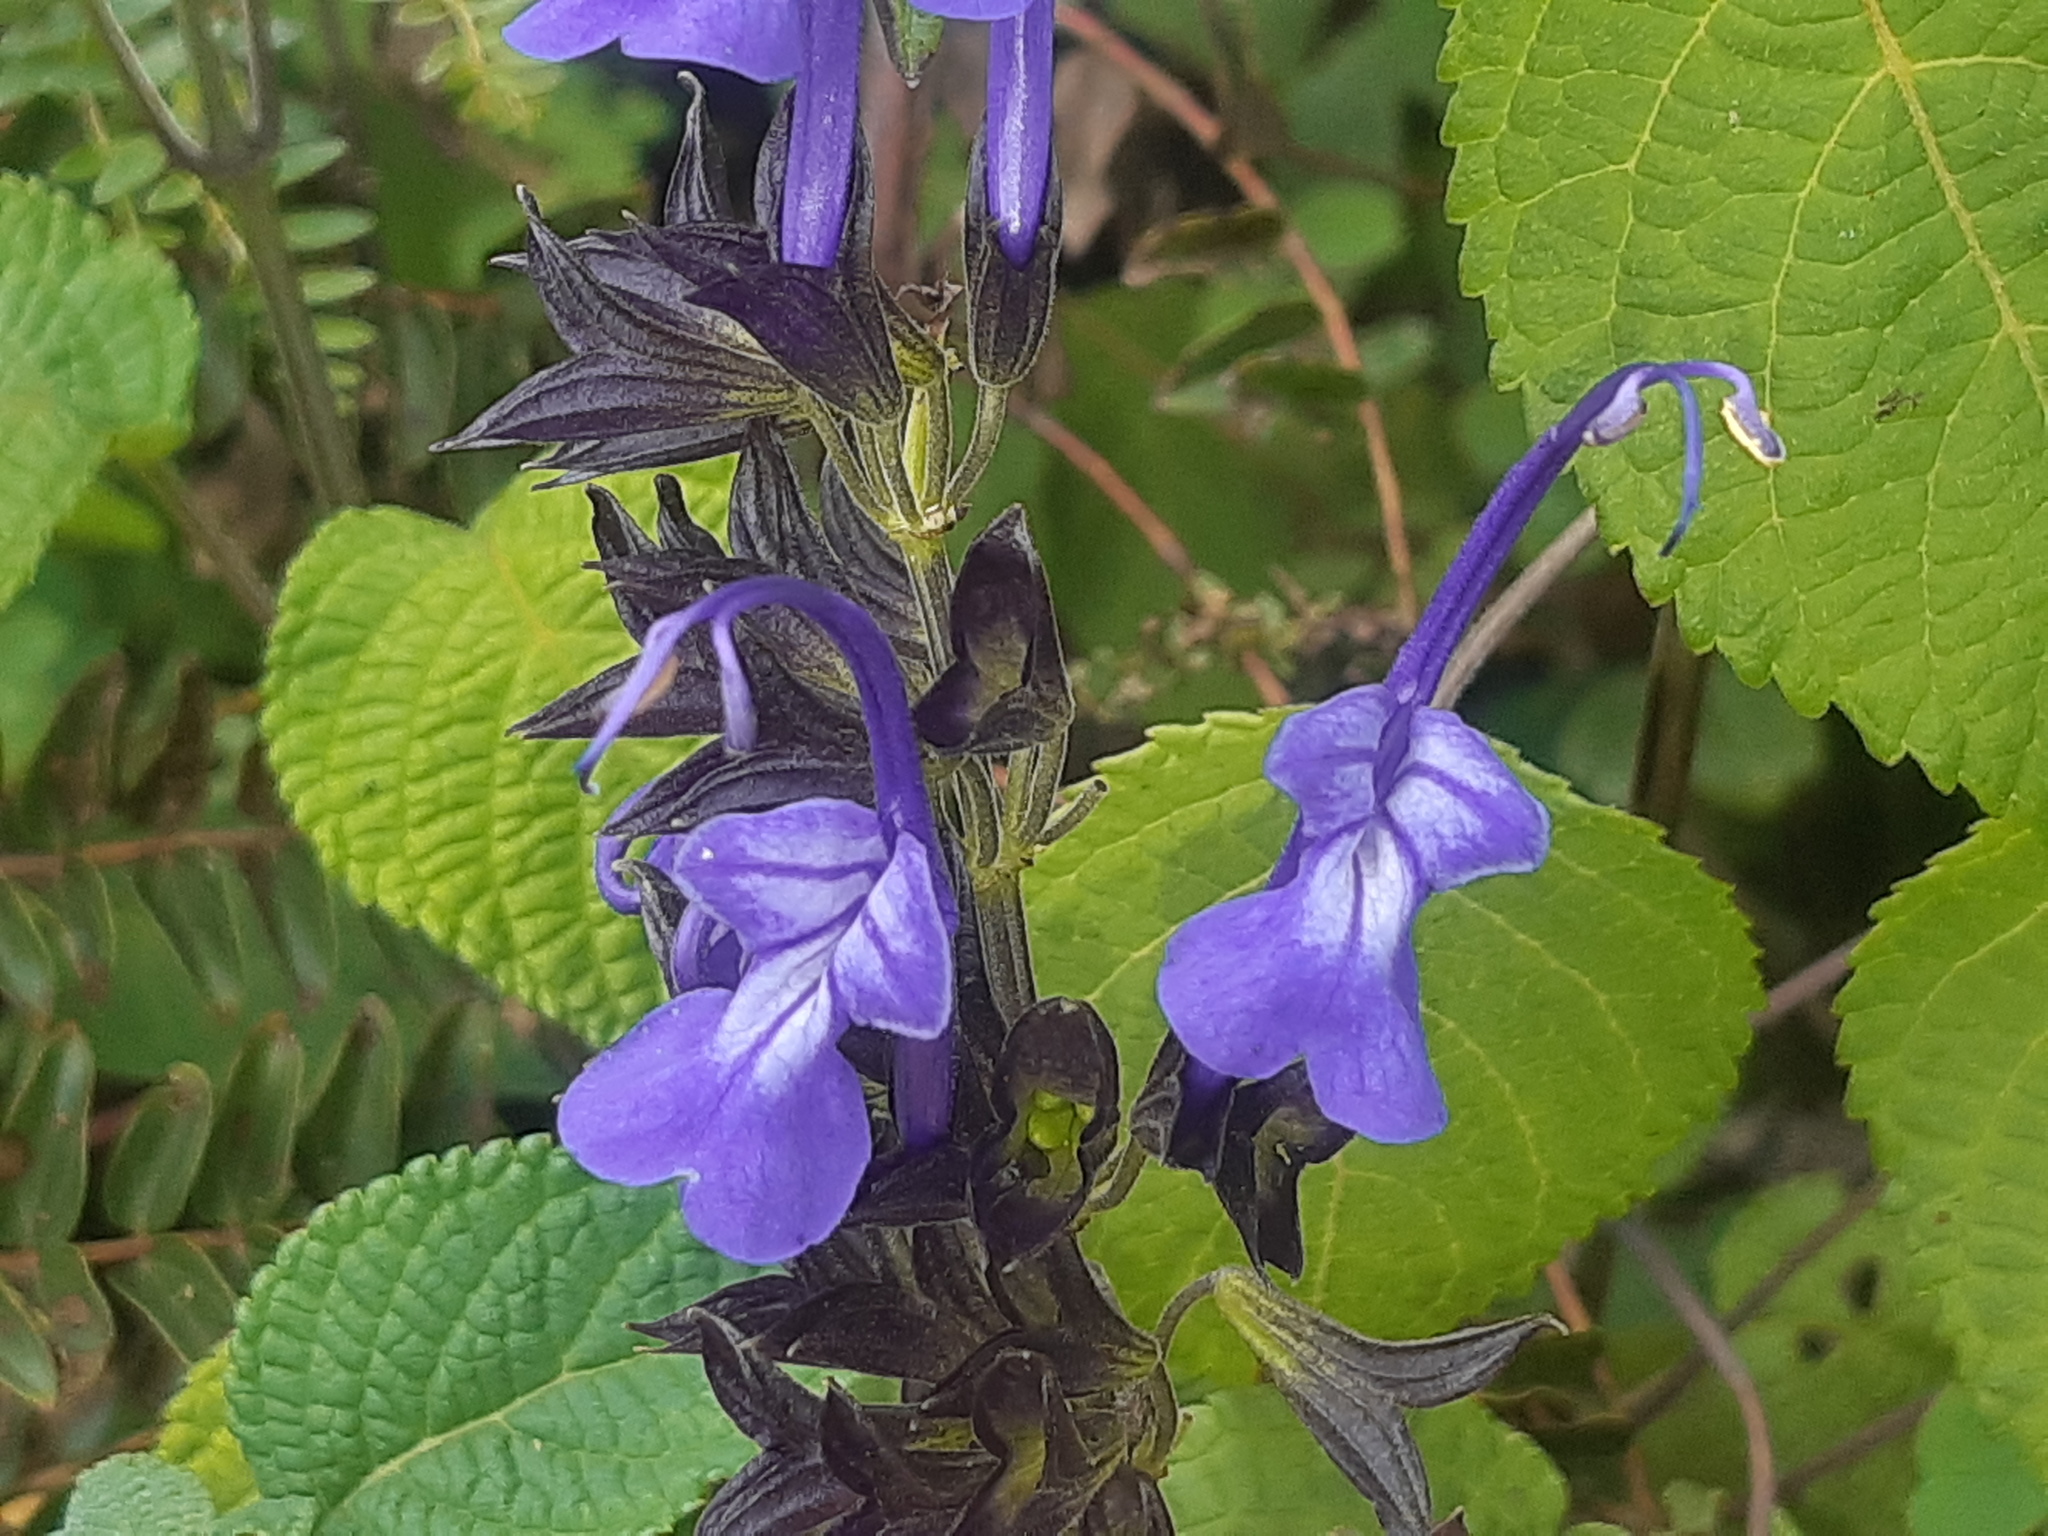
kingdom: Plantae
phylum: Tracheophyta
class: Magnoliopsida
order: Lamiales
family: Lamiaceae
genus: Salvia
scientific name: Salvia pichinchensis
